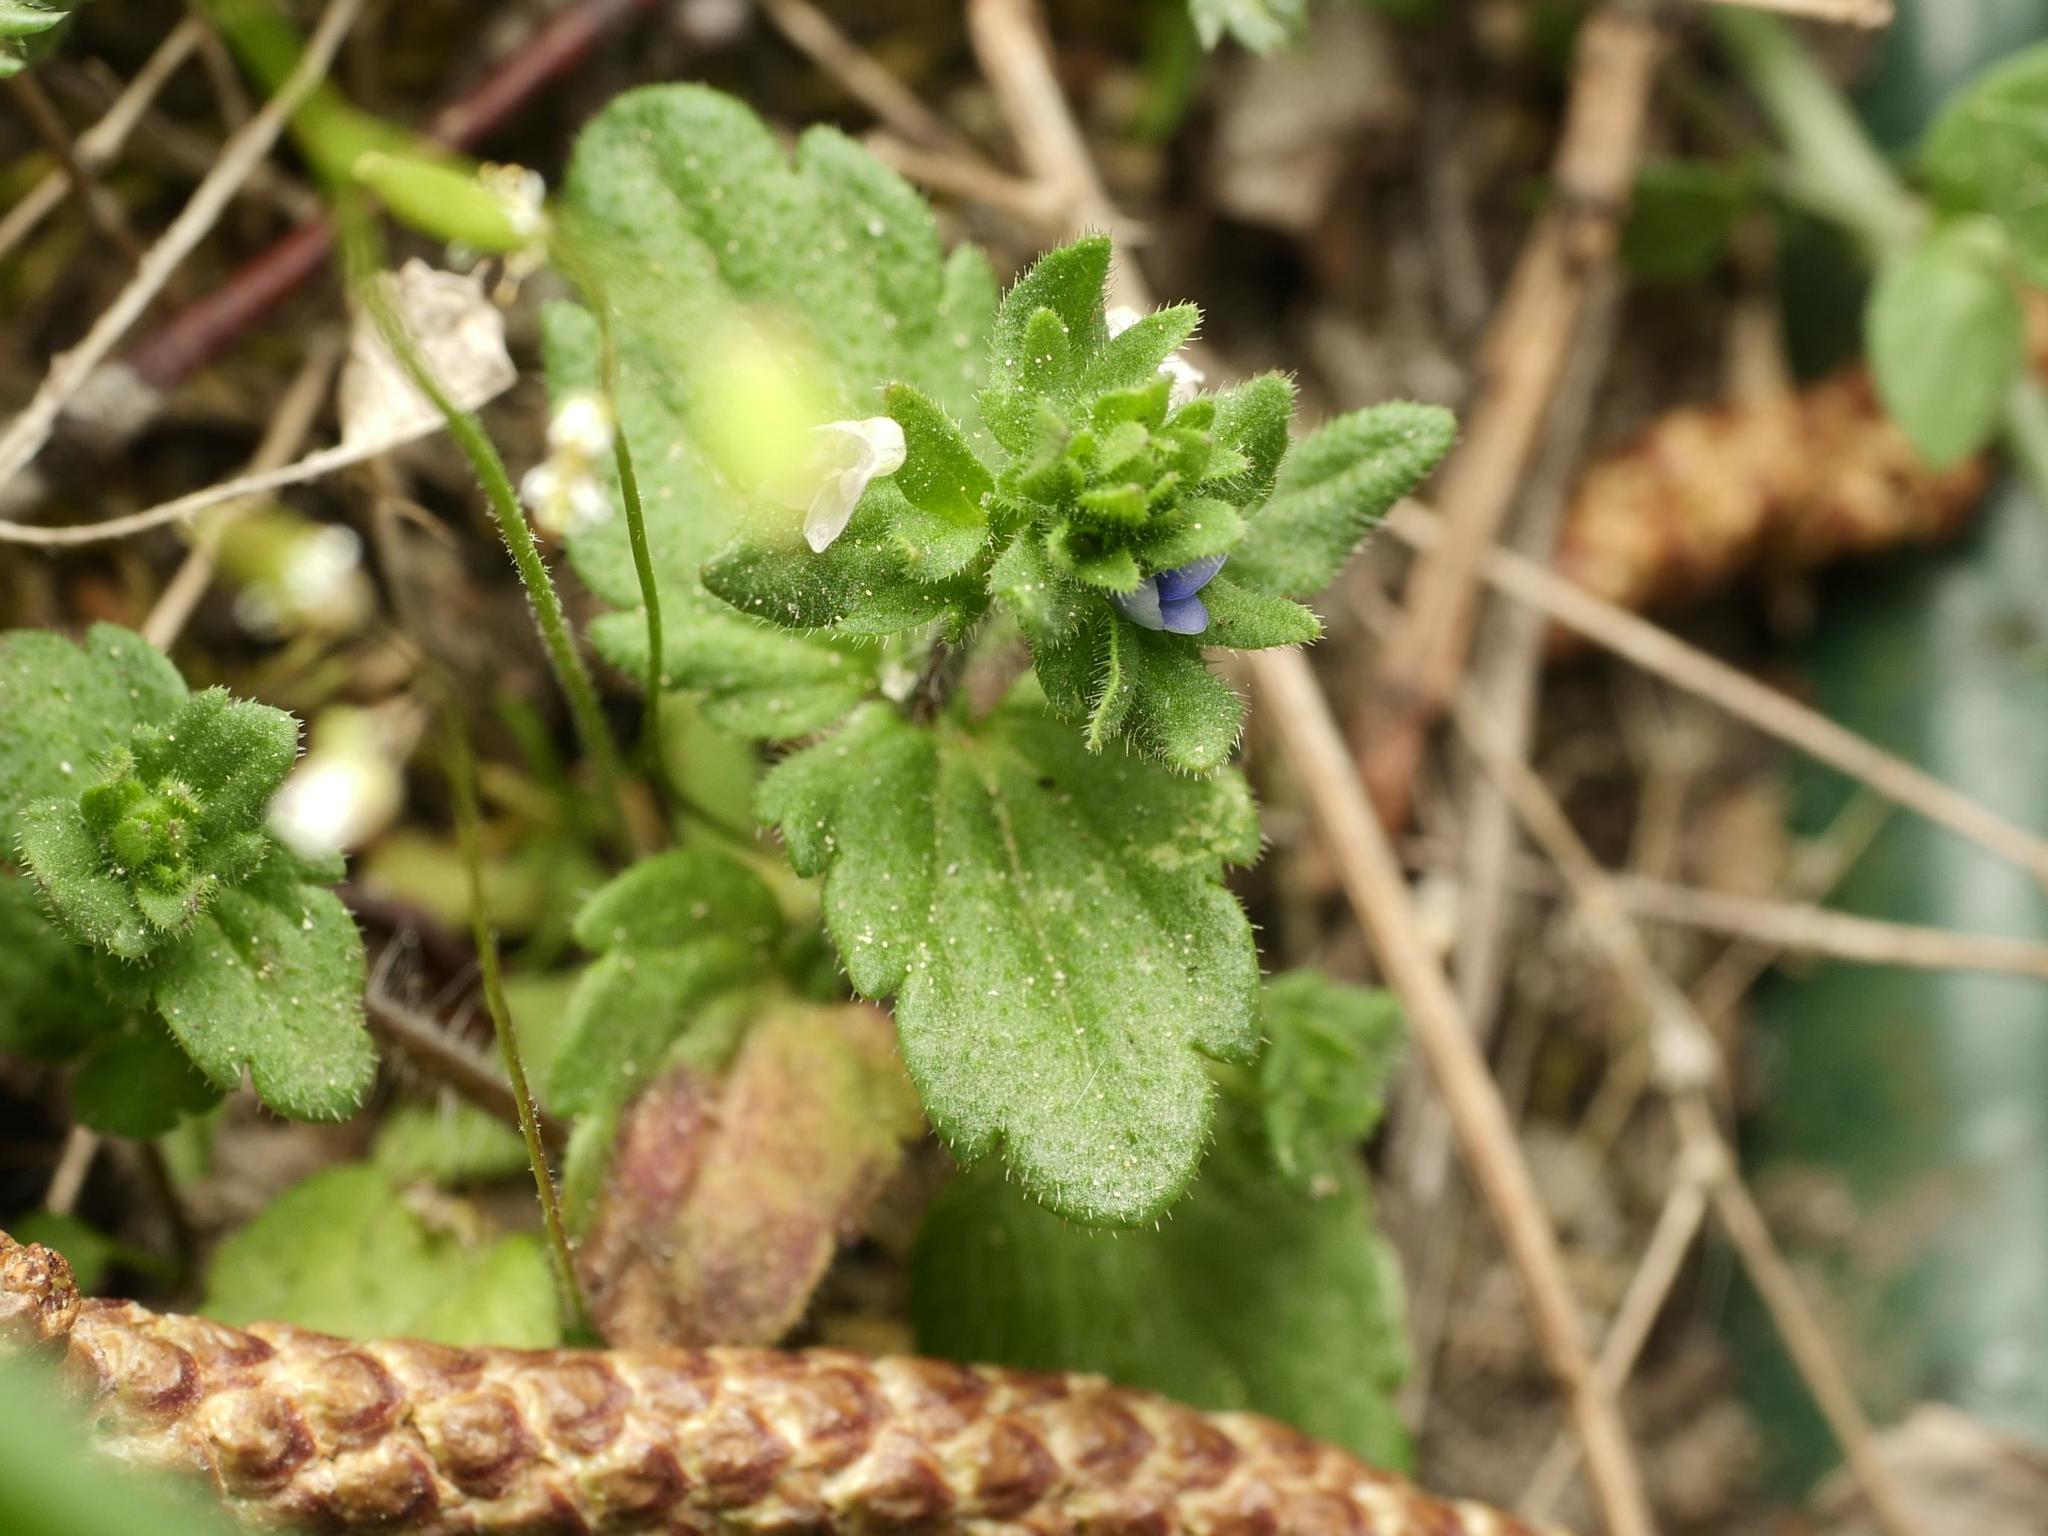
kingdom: Plantae
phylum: Tracheophyta
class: Magnoliopsida
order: Lamiales
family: Plantaginaceae
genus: Veronica
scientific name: Veronica arvensis
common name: Corn speedwell
